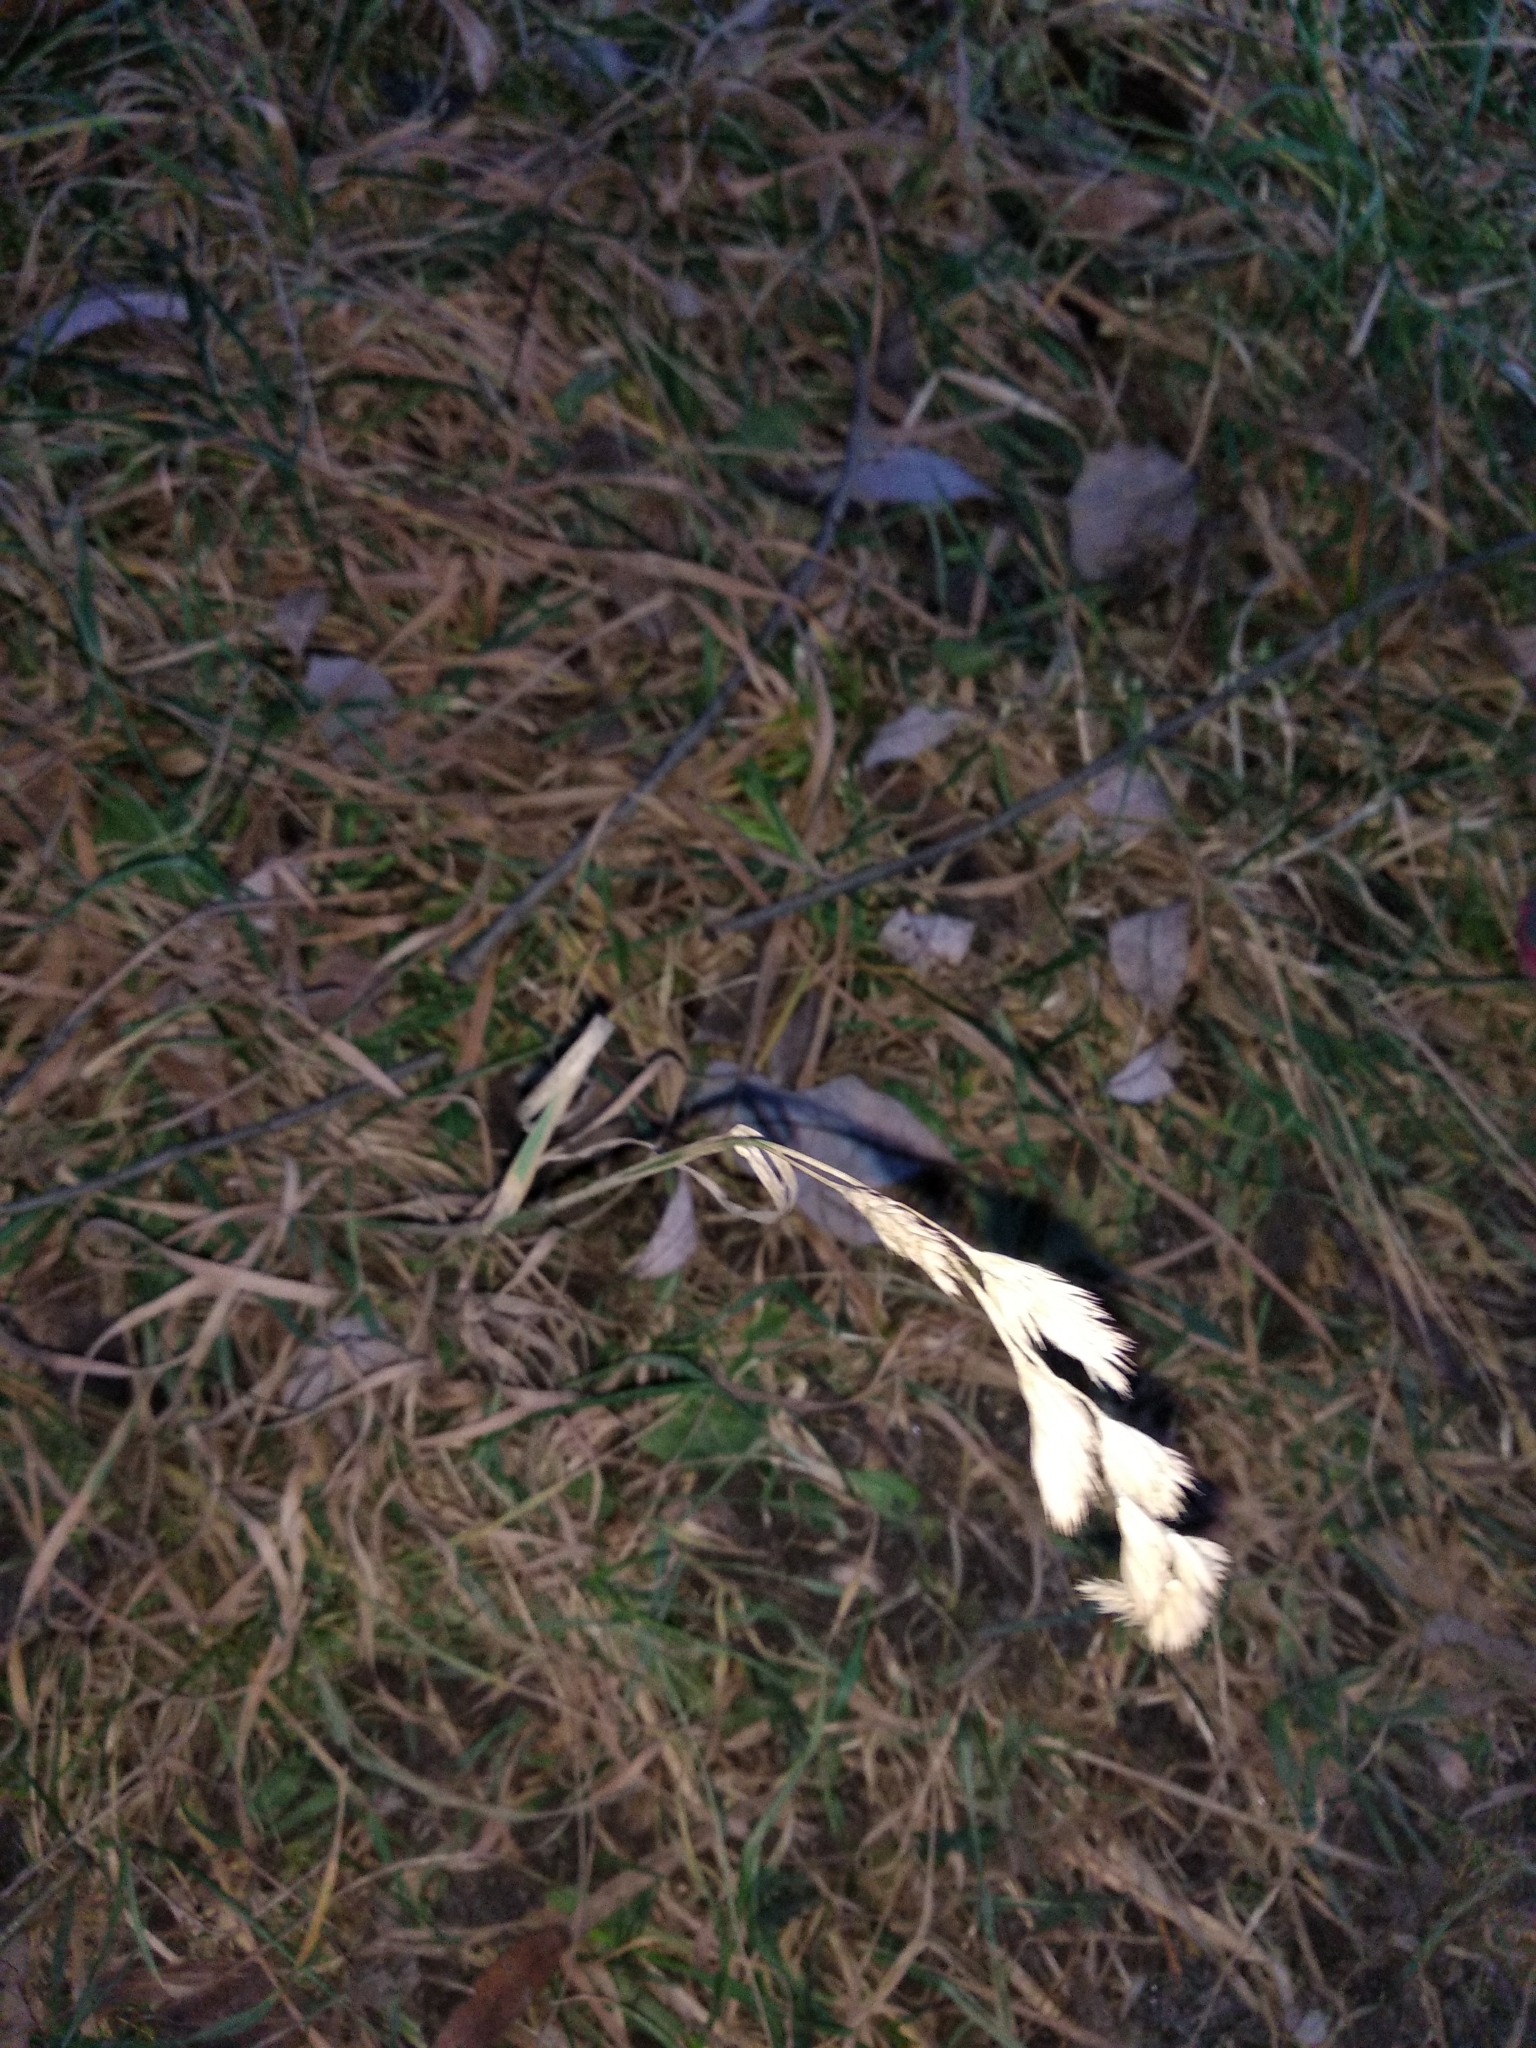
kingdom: Plantae
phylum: Tracheophyta
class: Liliopsida
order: Poales
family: Poaceae
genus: Dactylis
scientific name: Dactylis glomerata
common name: Orchardgrass
